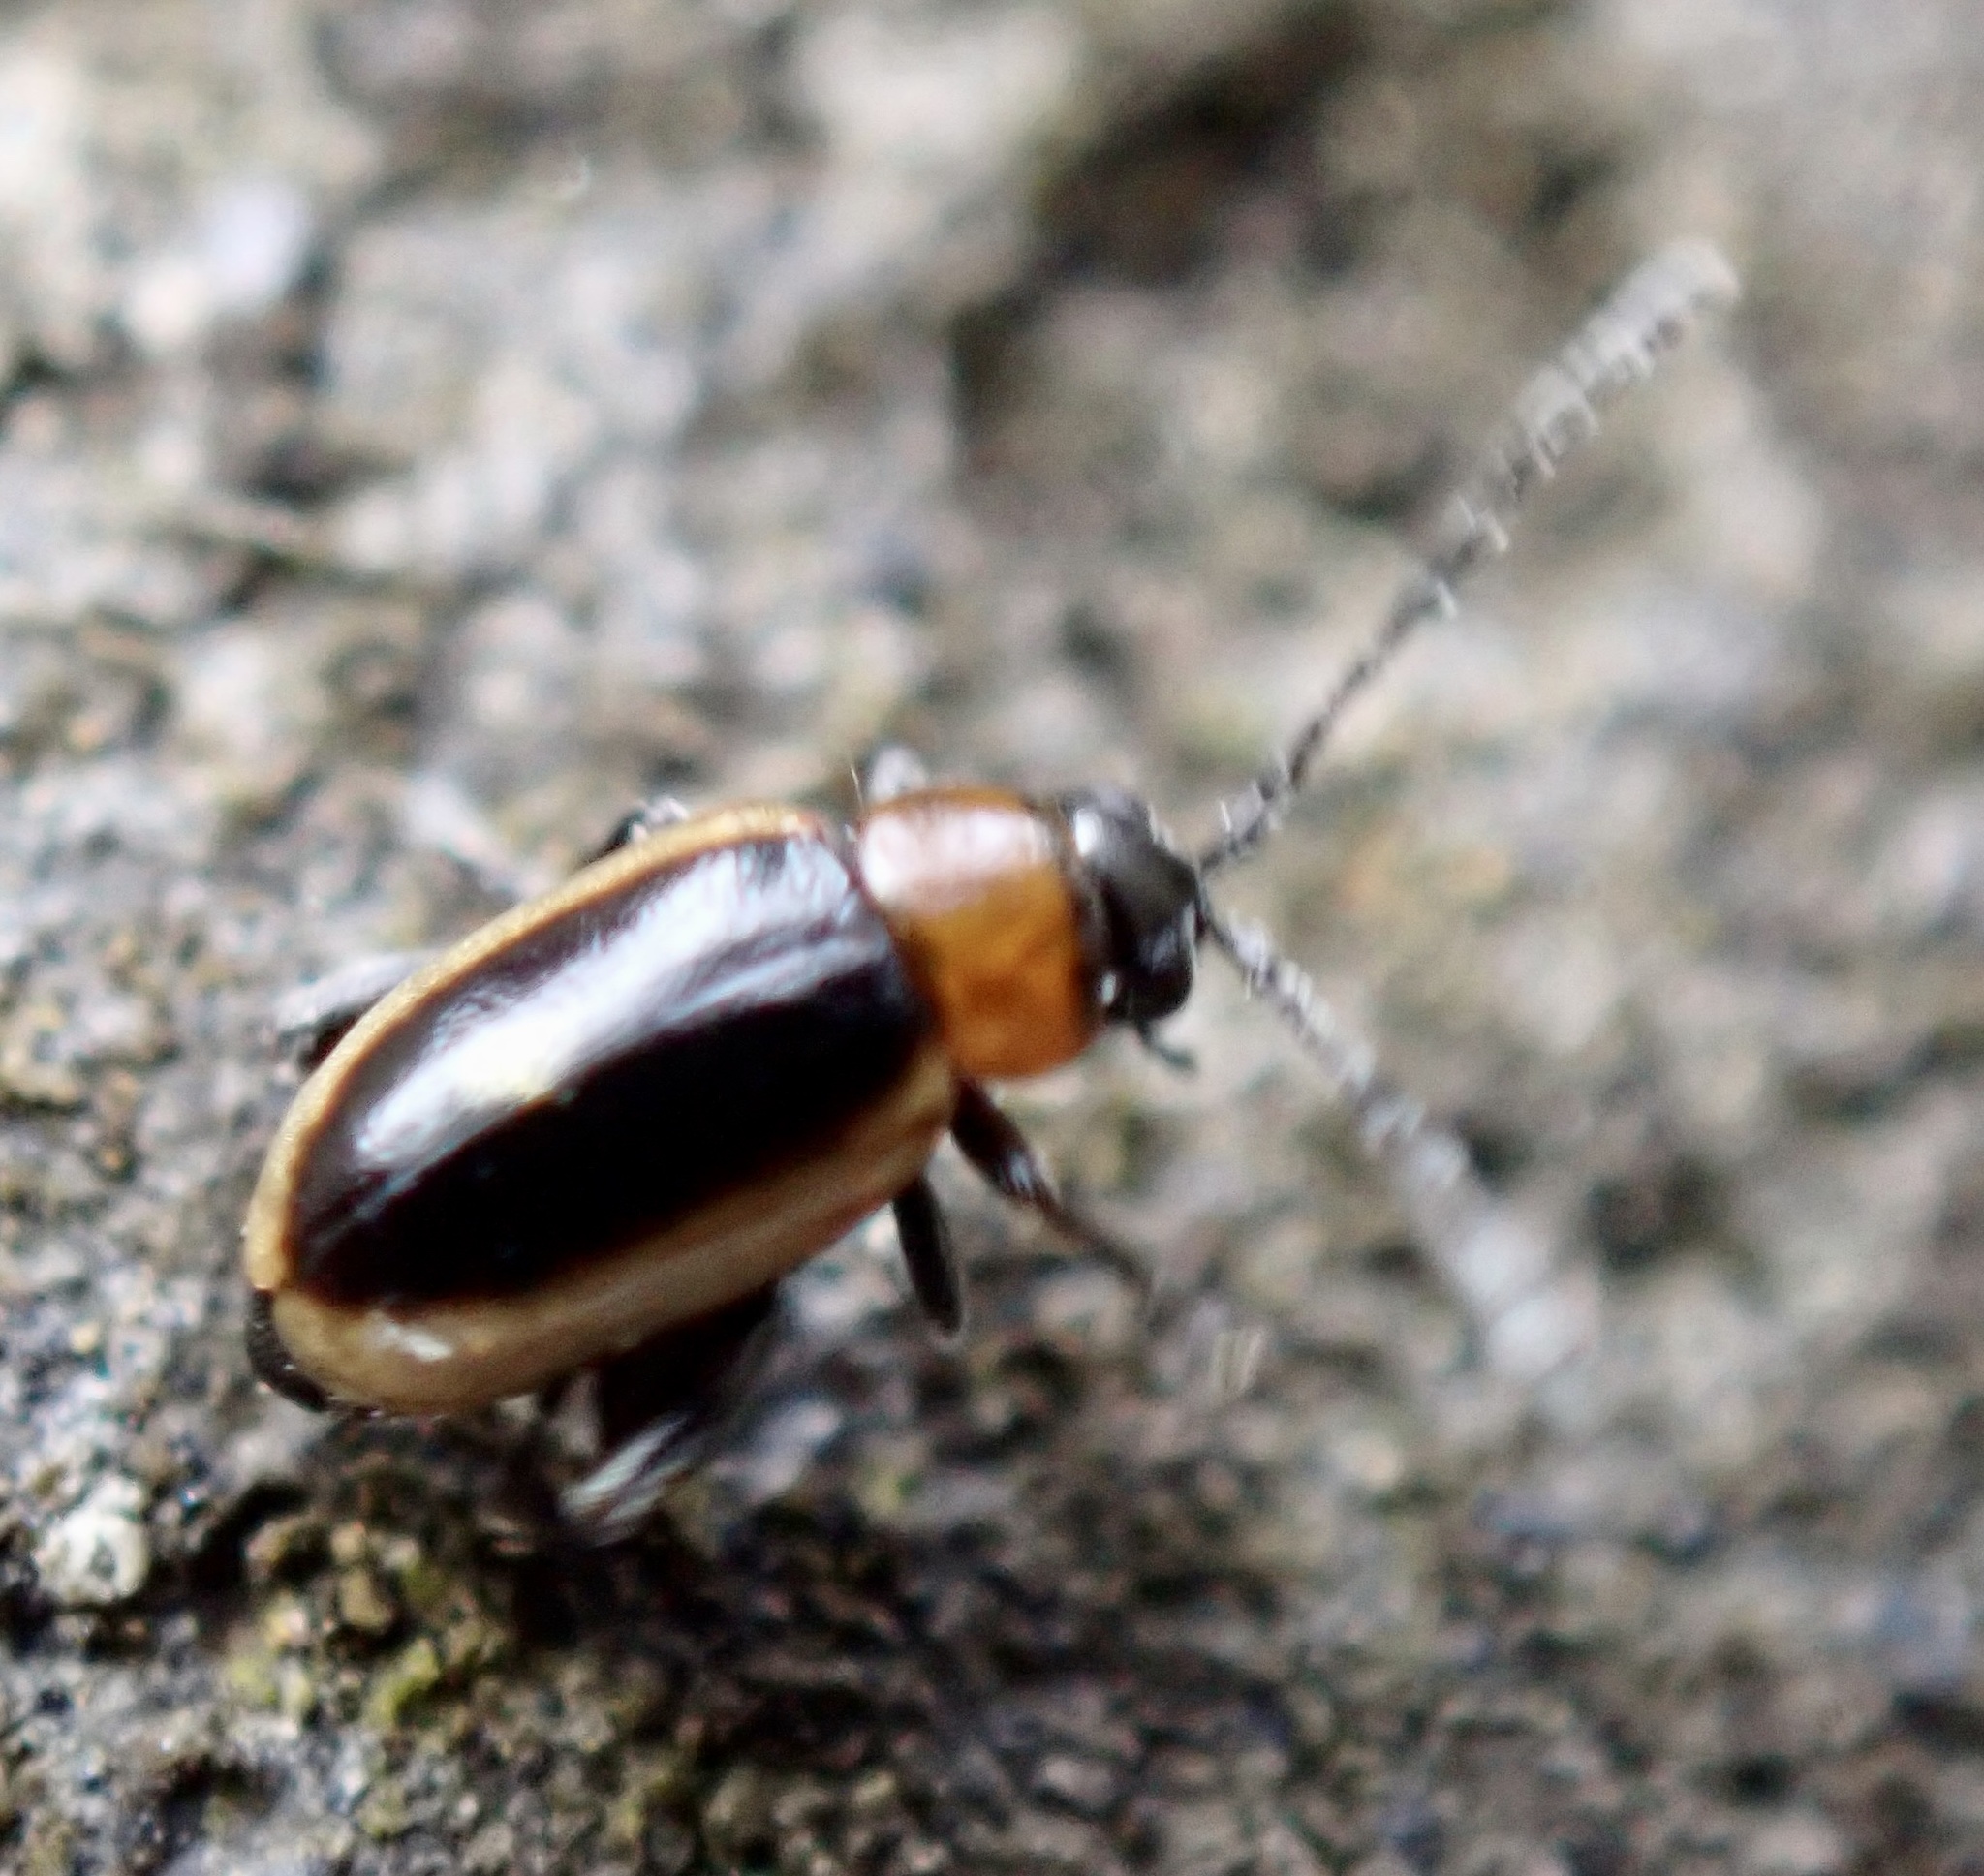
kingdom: Animalia
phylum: Arthropoda
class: Insecta
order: Coleoptera
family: Chrysomelidae
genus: Longitarsus
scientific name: Longitarsus dorsalis
